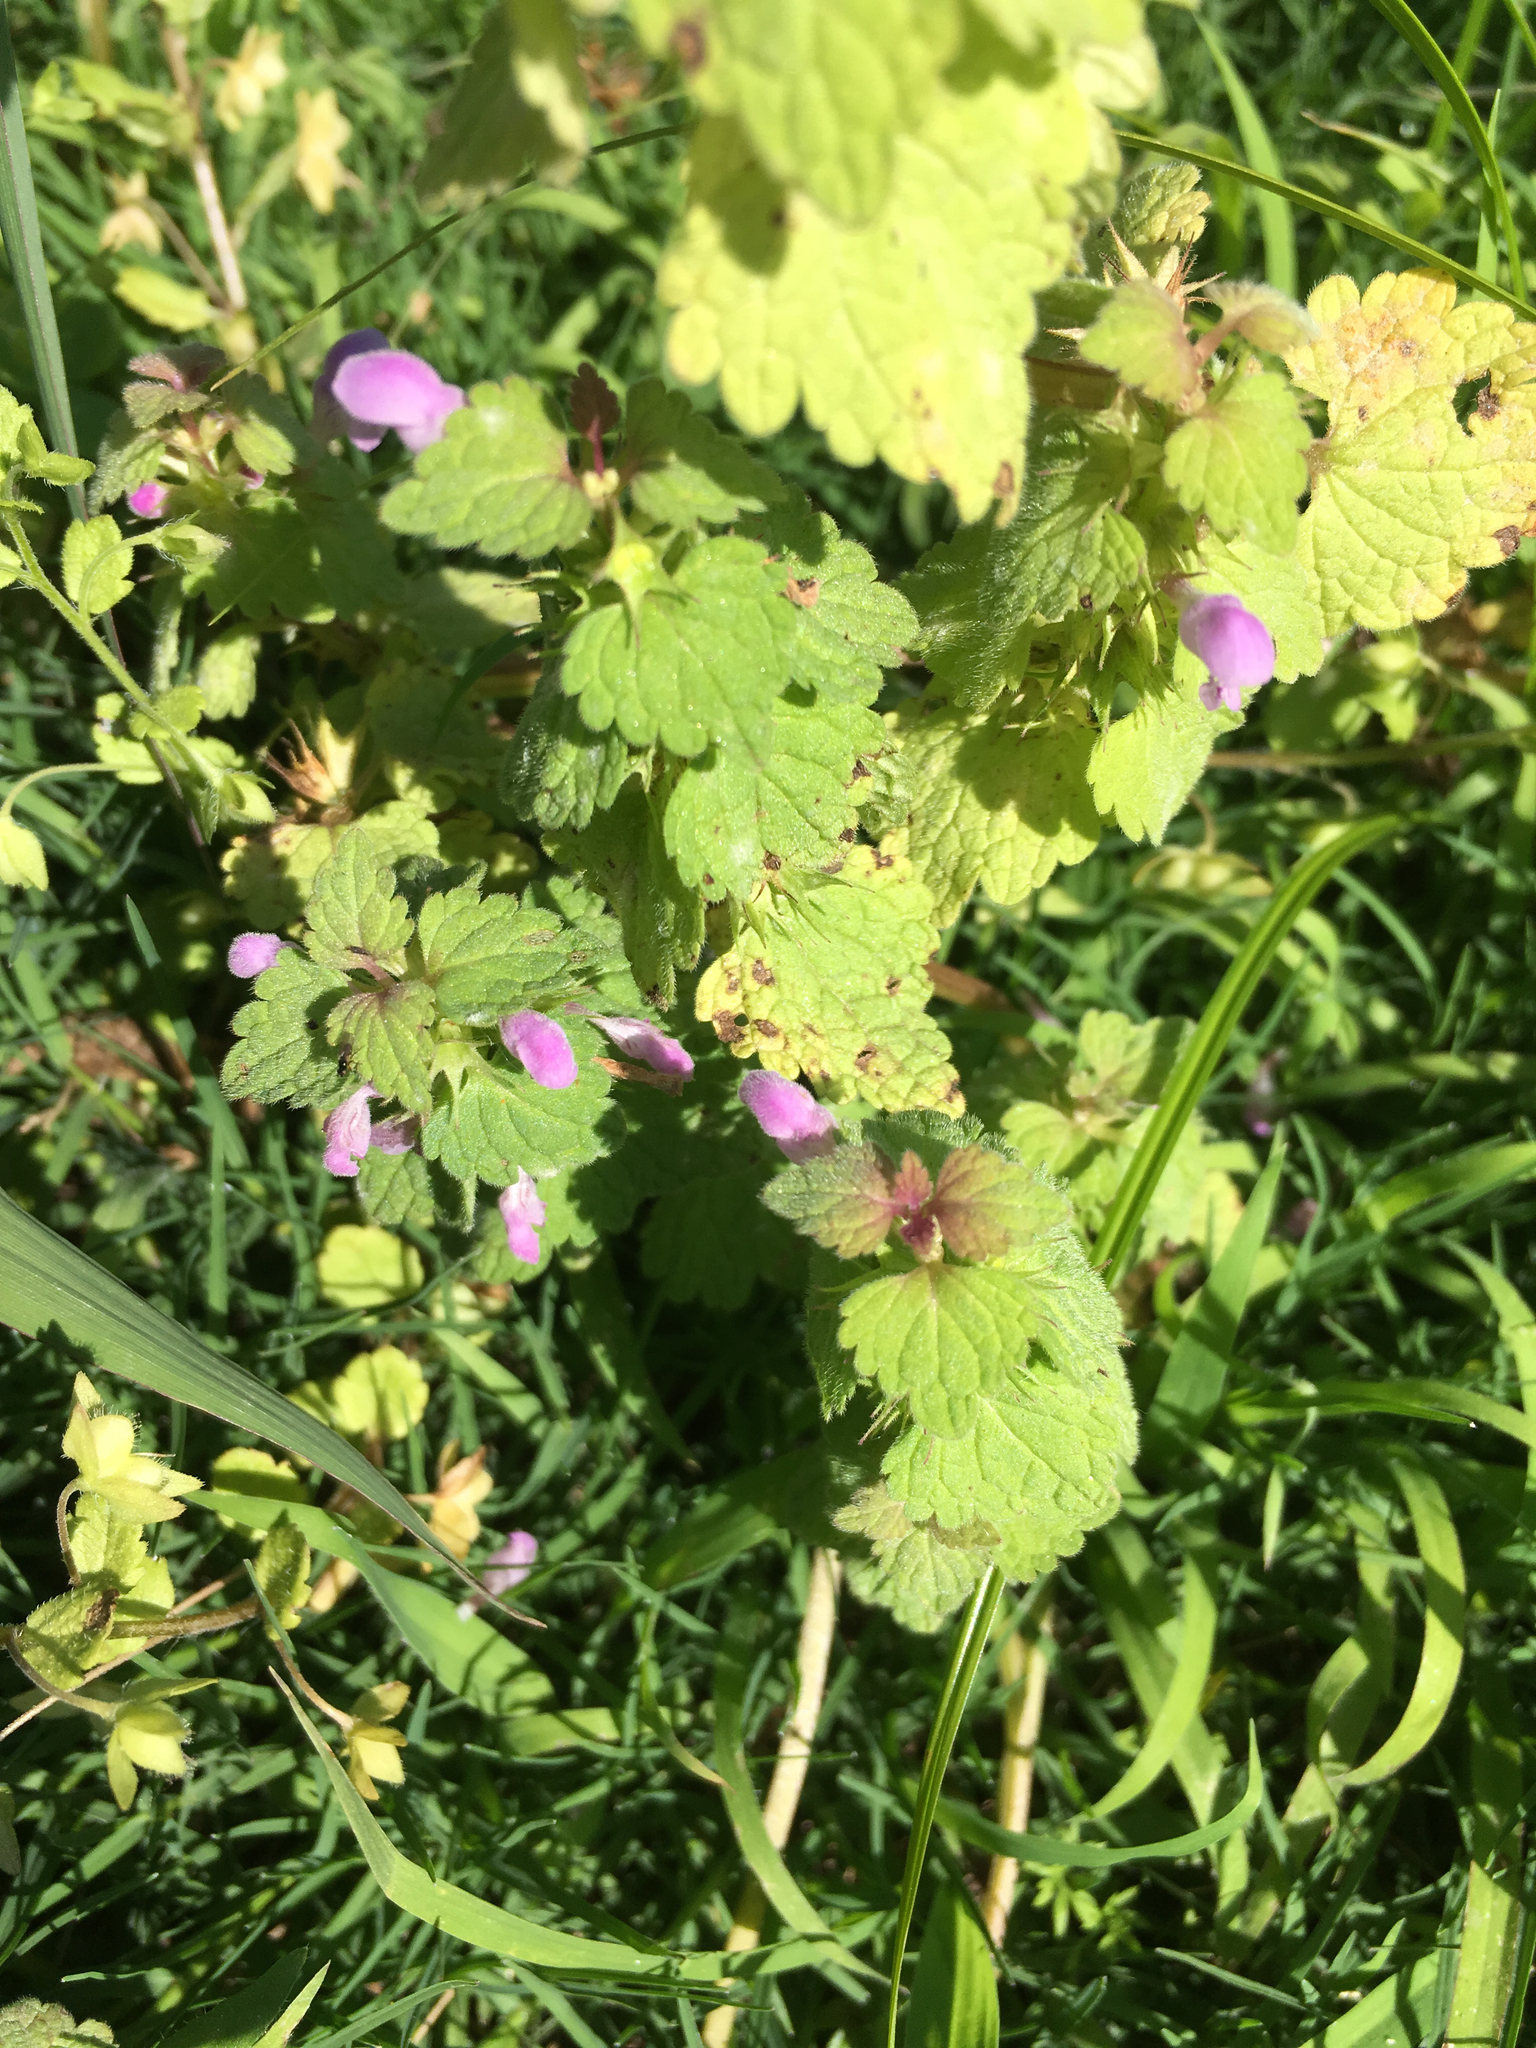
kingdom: Plantae
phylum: Tracheophyta
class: Magnoliopsida
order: Lamiales
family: Lamiaceae
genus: Lamium
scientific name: Lamium purpureum
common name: Red dead-nettle
